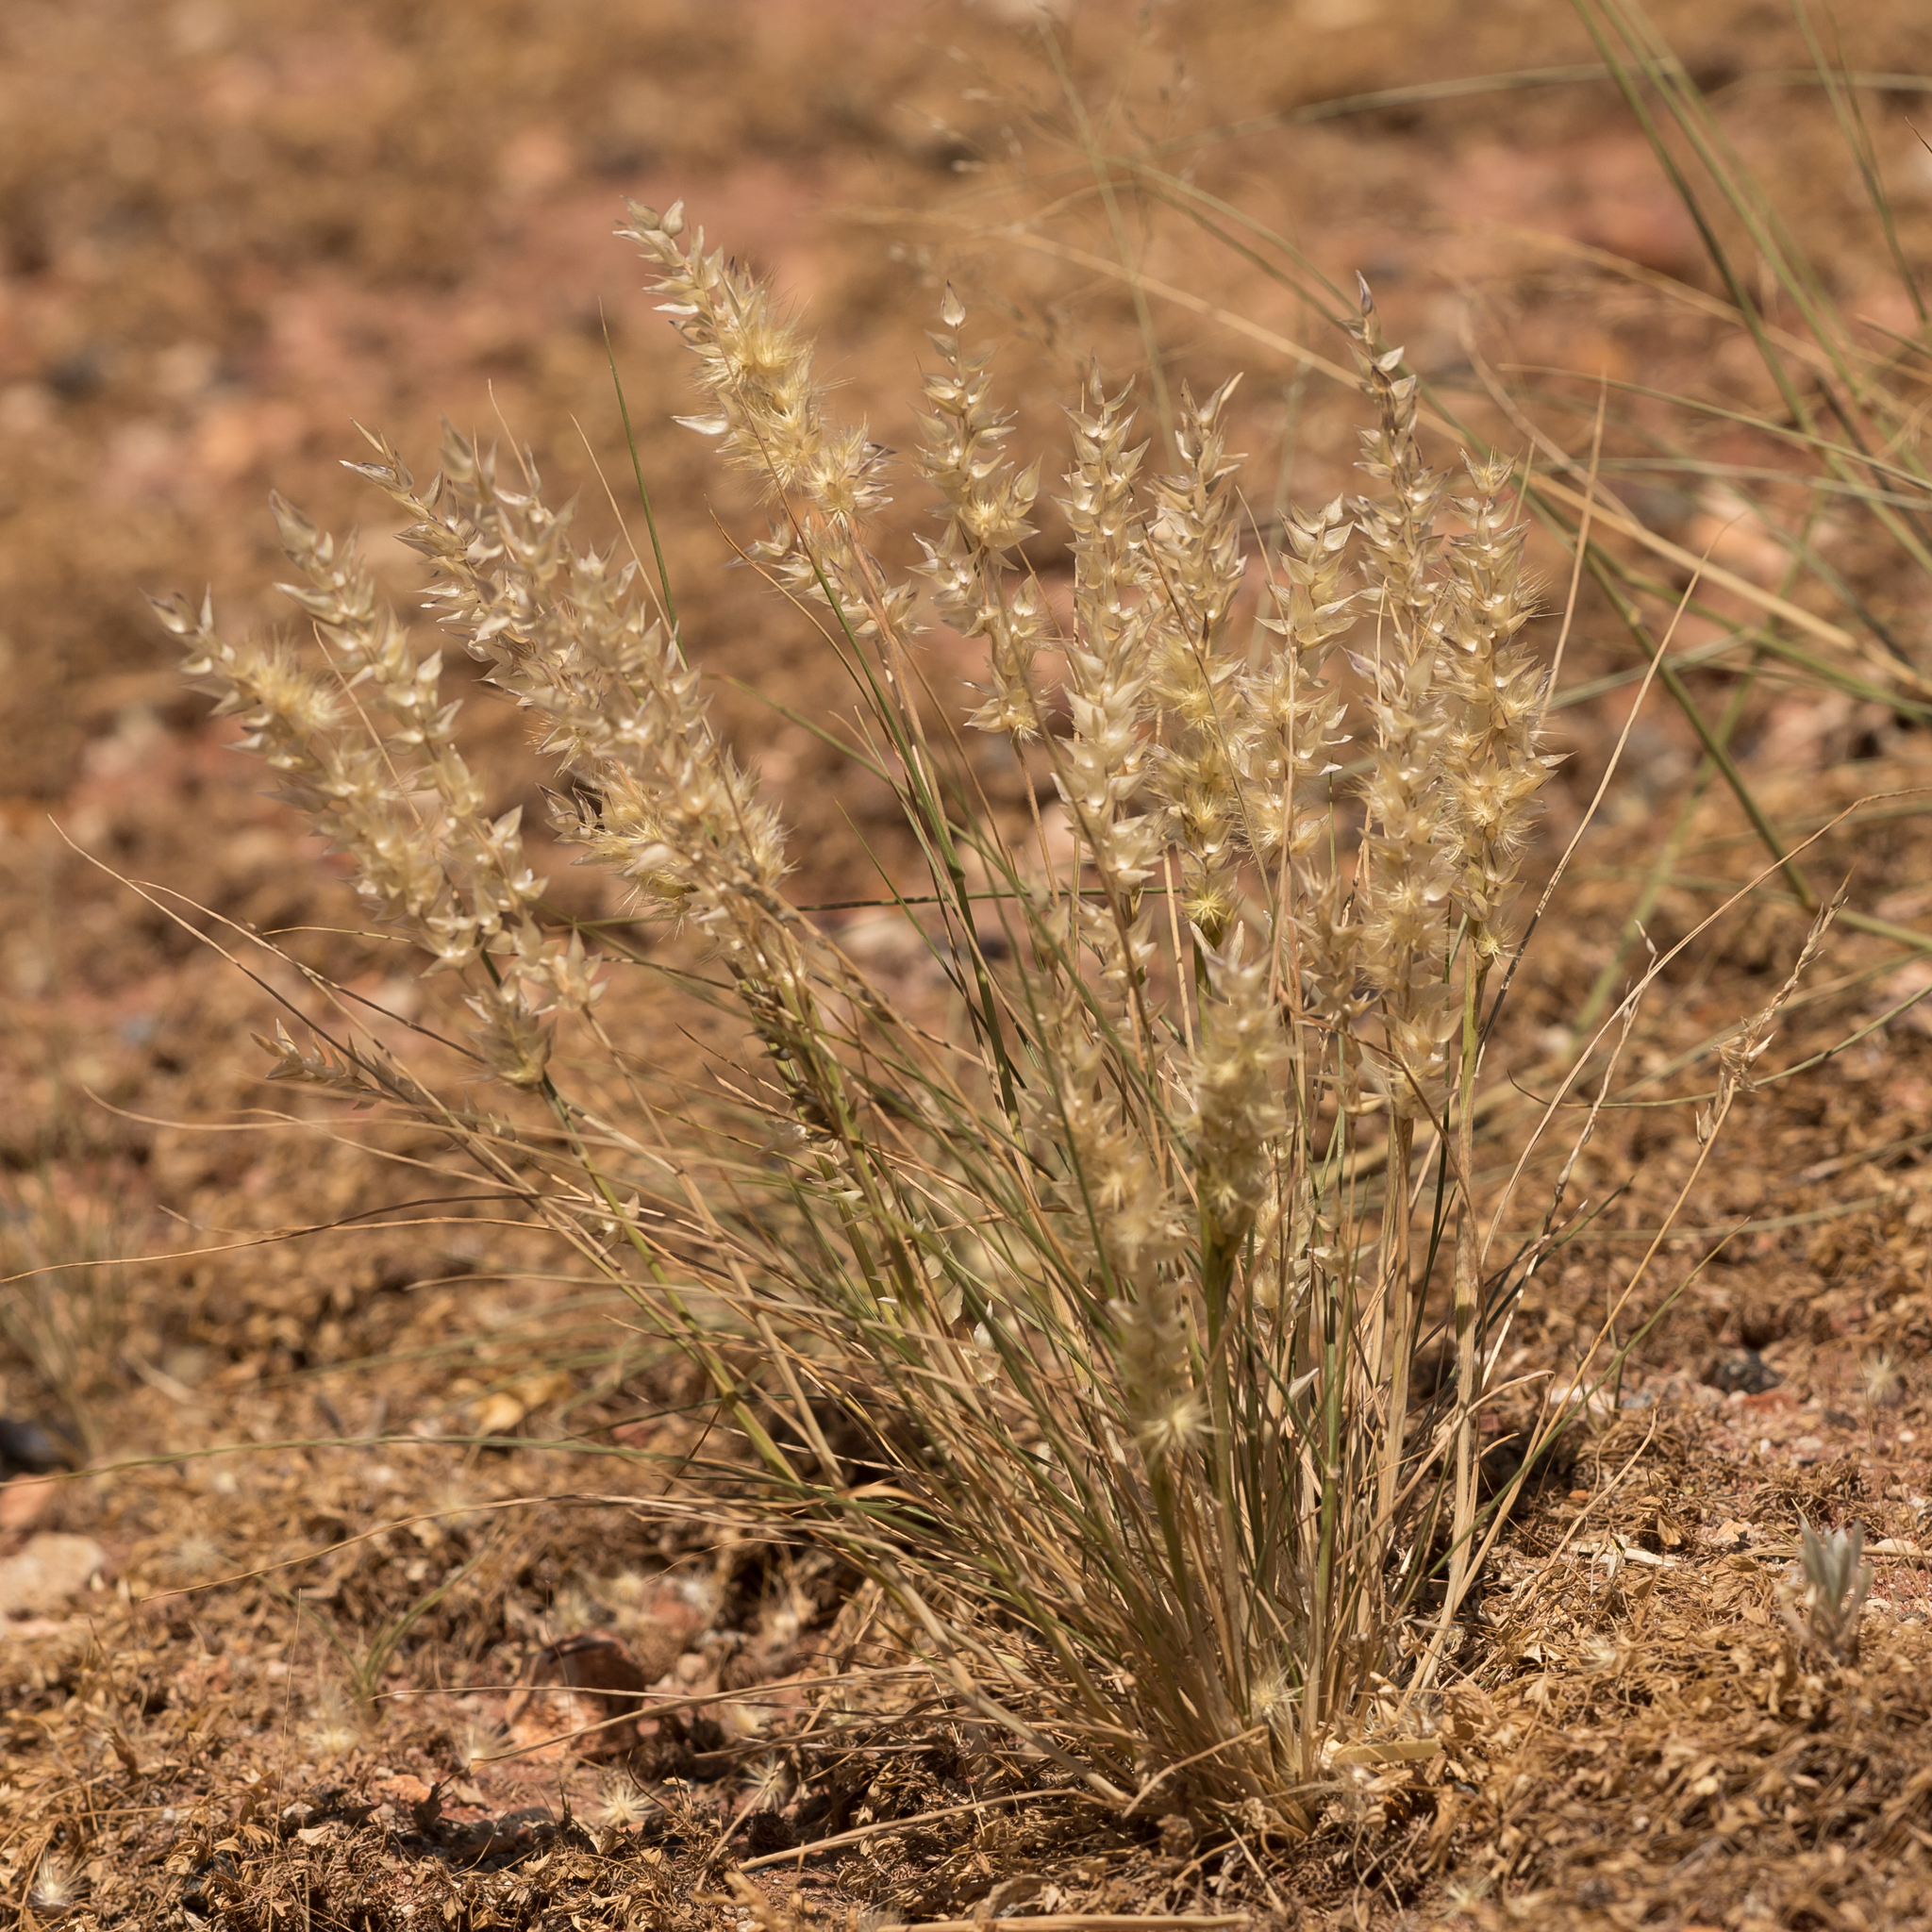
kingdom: Plantae
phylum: Tracheophyta
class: Liliopsida
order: Poales
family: Poaceae
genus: Enneapogon
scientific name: Enneapogon avenaceus
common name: Hairy oat grass
